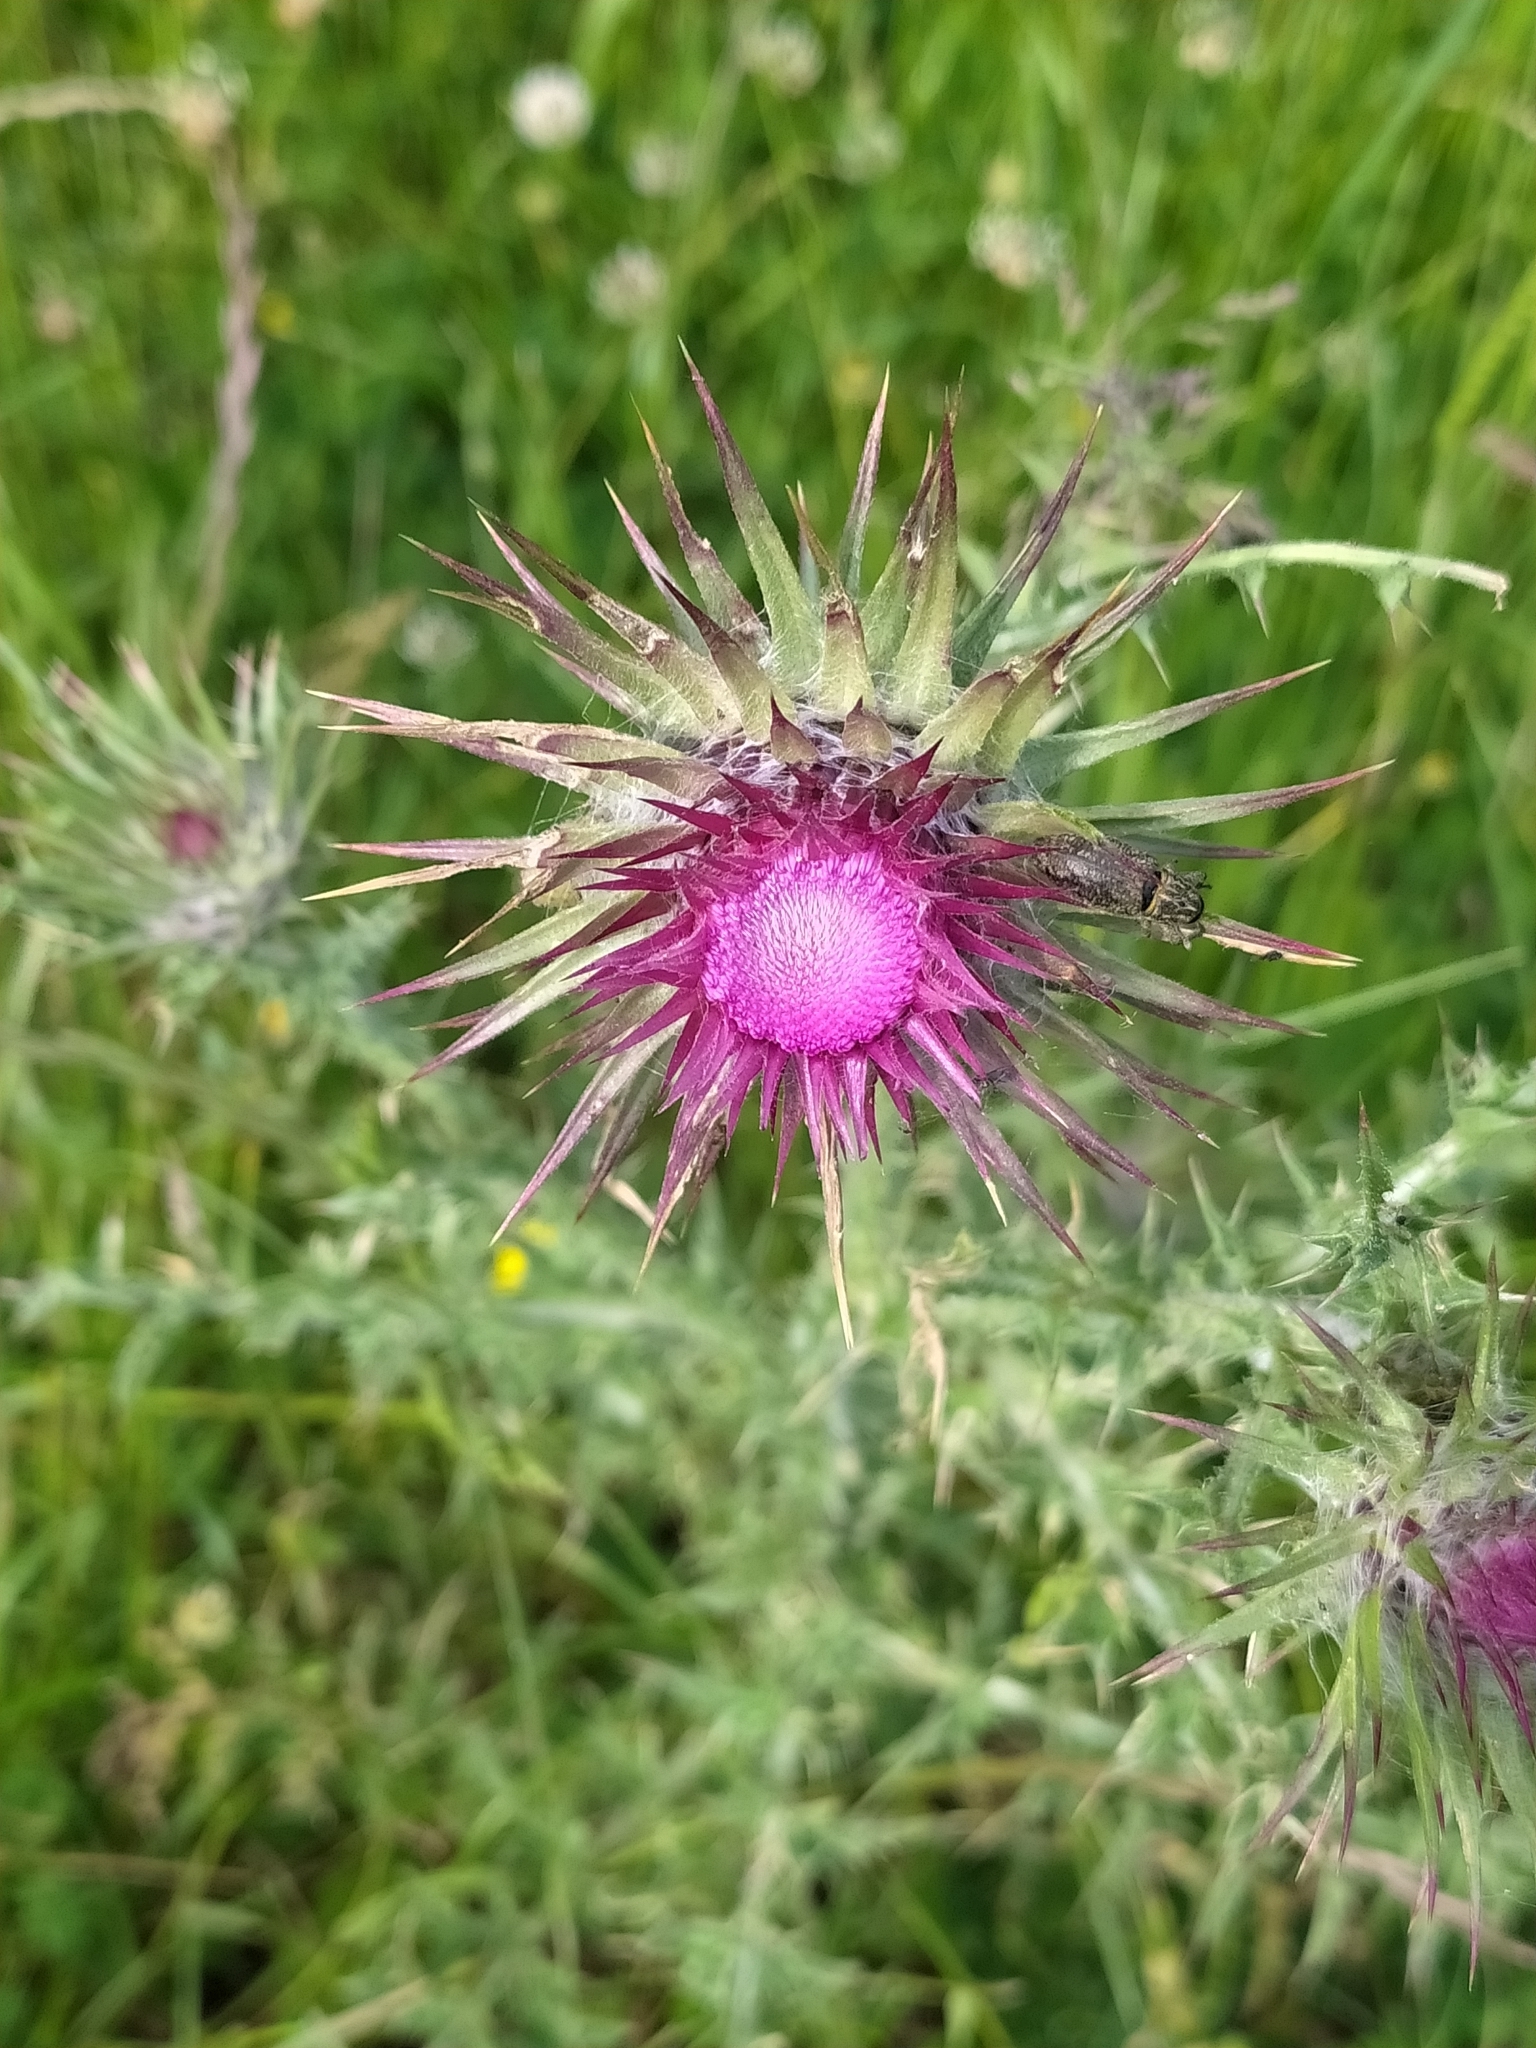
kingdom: Plantae
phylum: Tracheophyta
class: Magnoliopsida
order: Asterales
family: Asteraceae
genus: Carduus
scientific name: Carduus nutans
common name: Musk thistle
